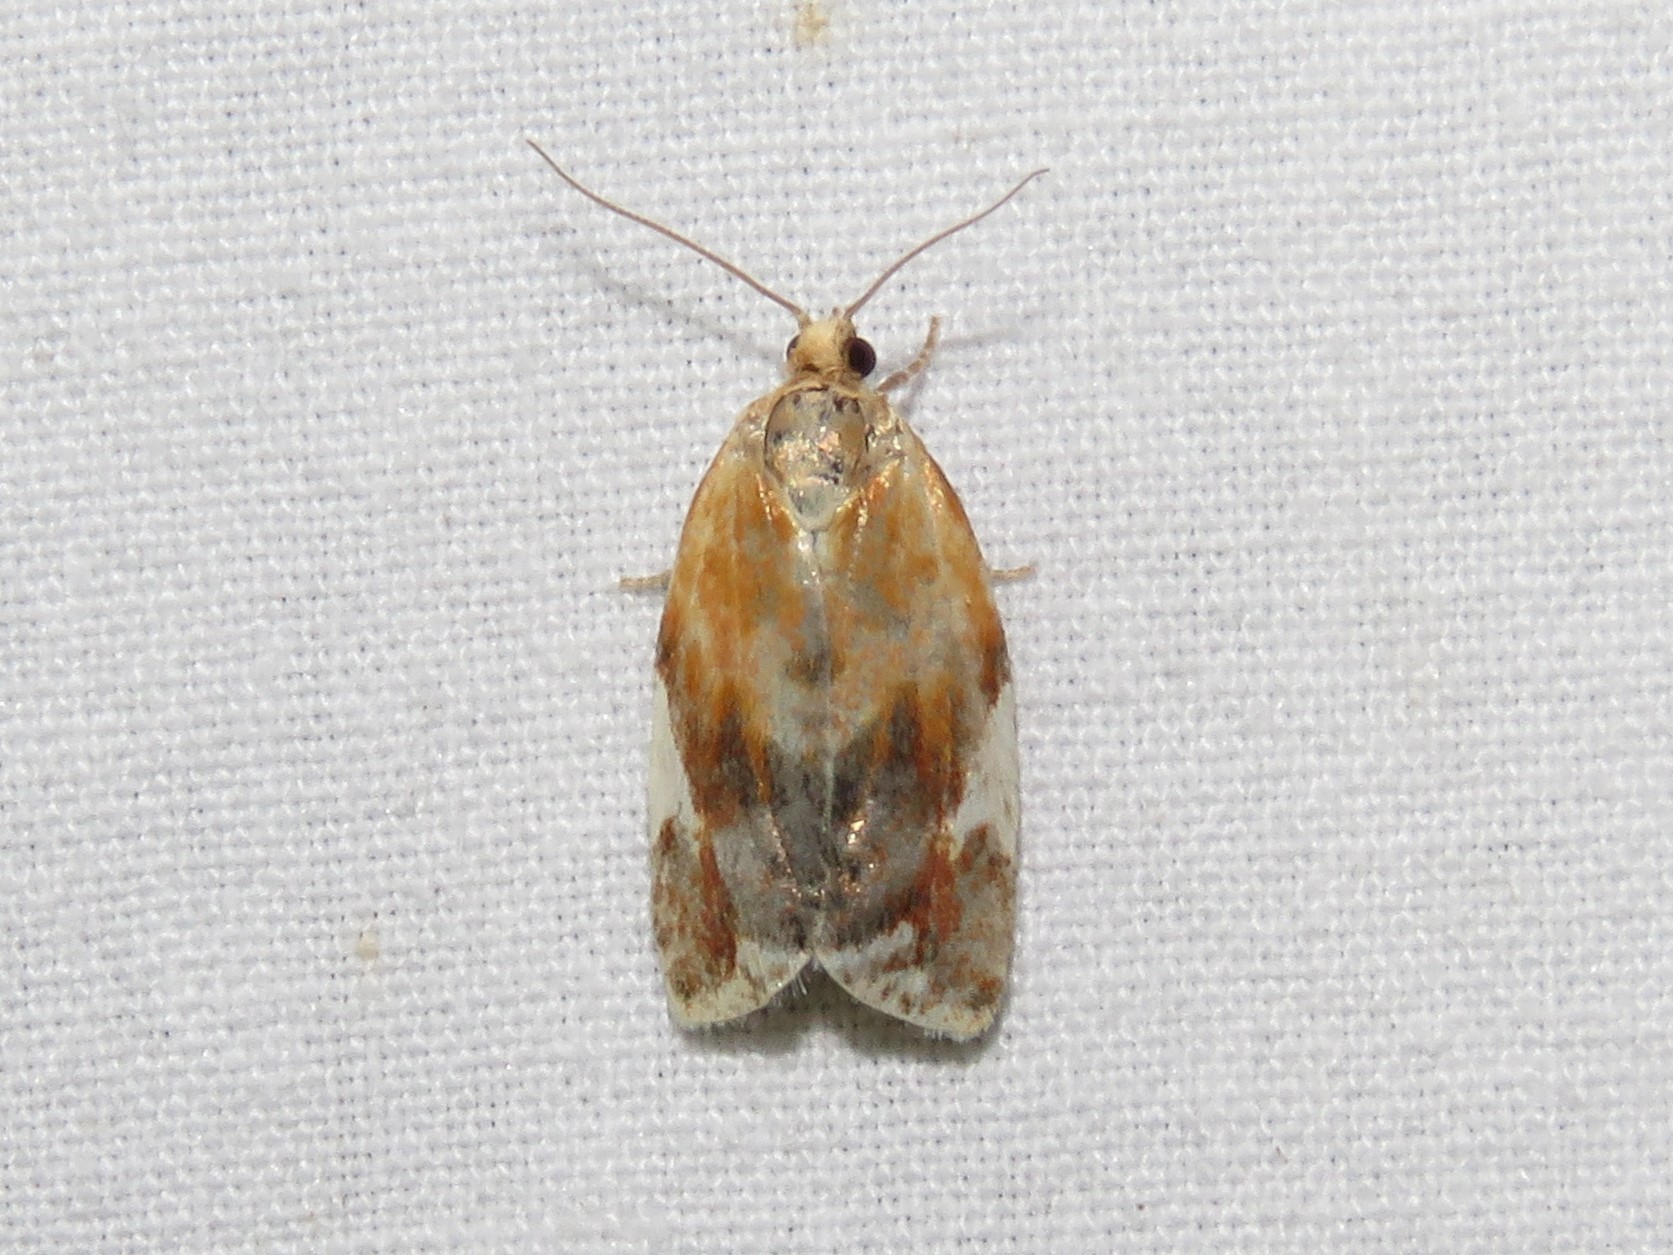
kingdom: Animalia
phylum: Arthropoda
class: Insecta
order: Lepidoptera
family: Tortricidae
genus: Clepsis
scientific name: Clepsis persicana
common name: White triangle tortrix
